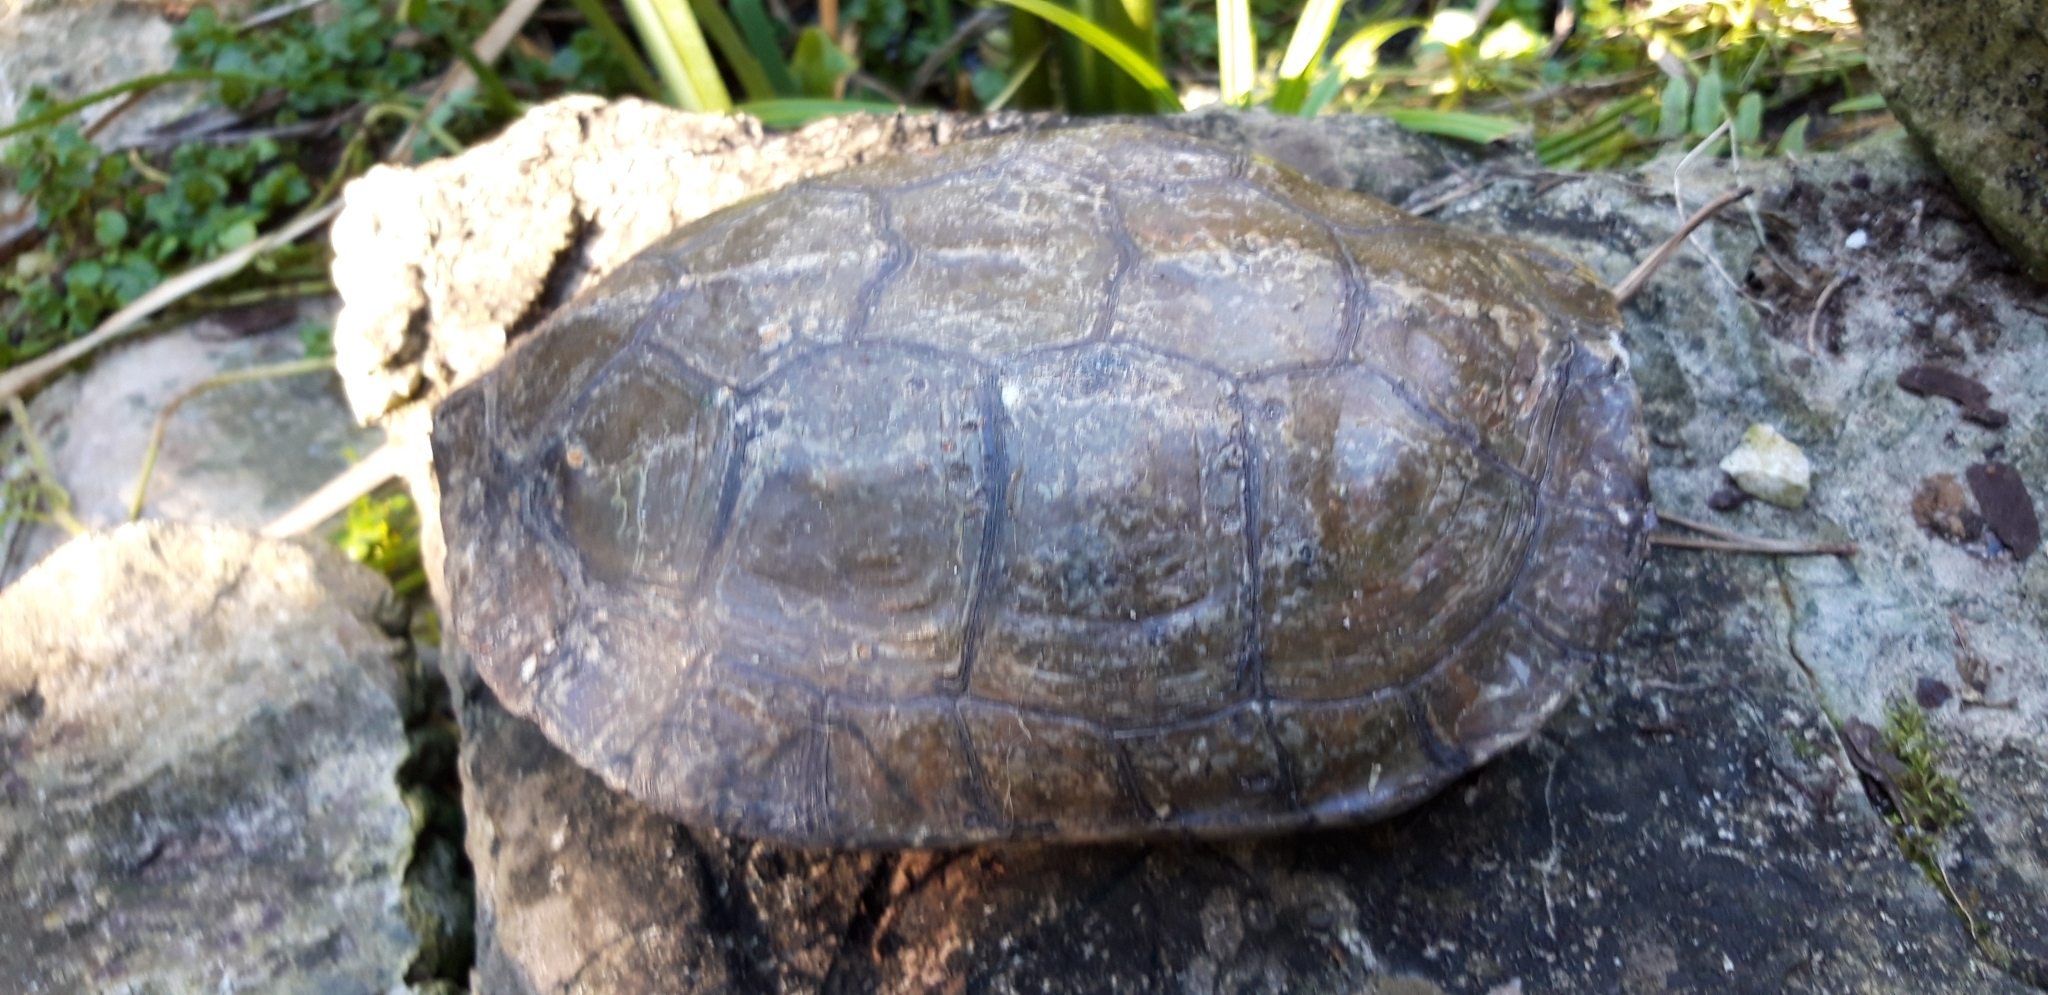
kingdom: Animalia
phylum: Chordata
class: Testudines
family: Geoemydidae
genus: Mauremys
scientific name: Mauremys leprosa
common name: Mediterranean pond turtle
